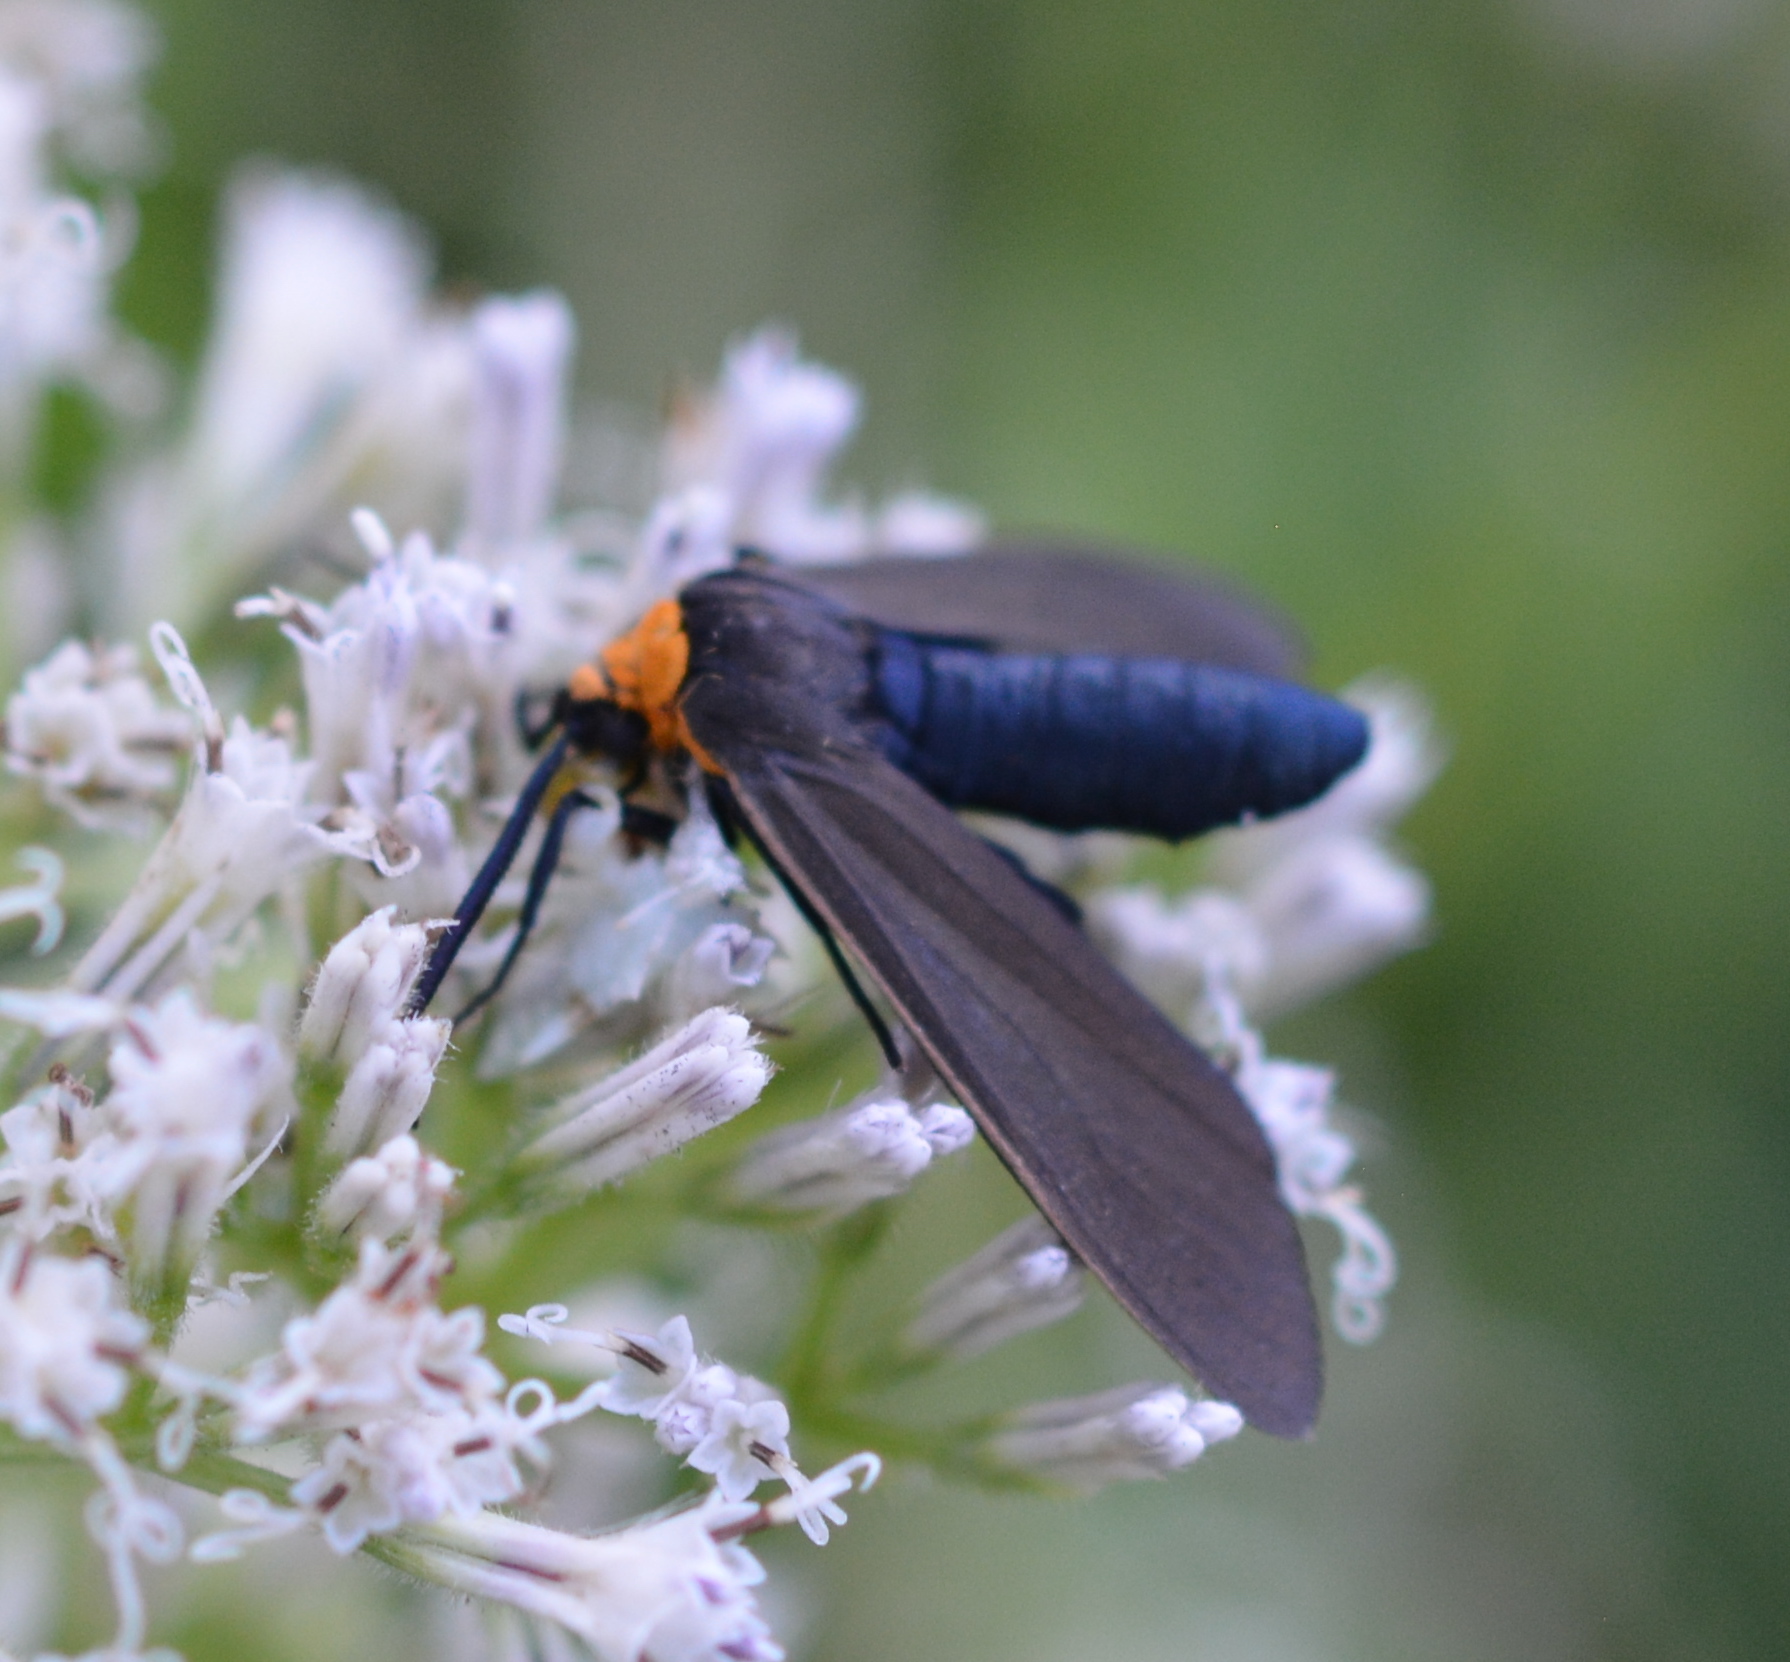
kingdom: Animalia
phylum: Arthropoda
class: Insecta
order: Lepidoptera
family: Erebidae
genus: Cisseps
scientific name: Cisseps fulvicollis
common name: Yellow-collared scape moth
